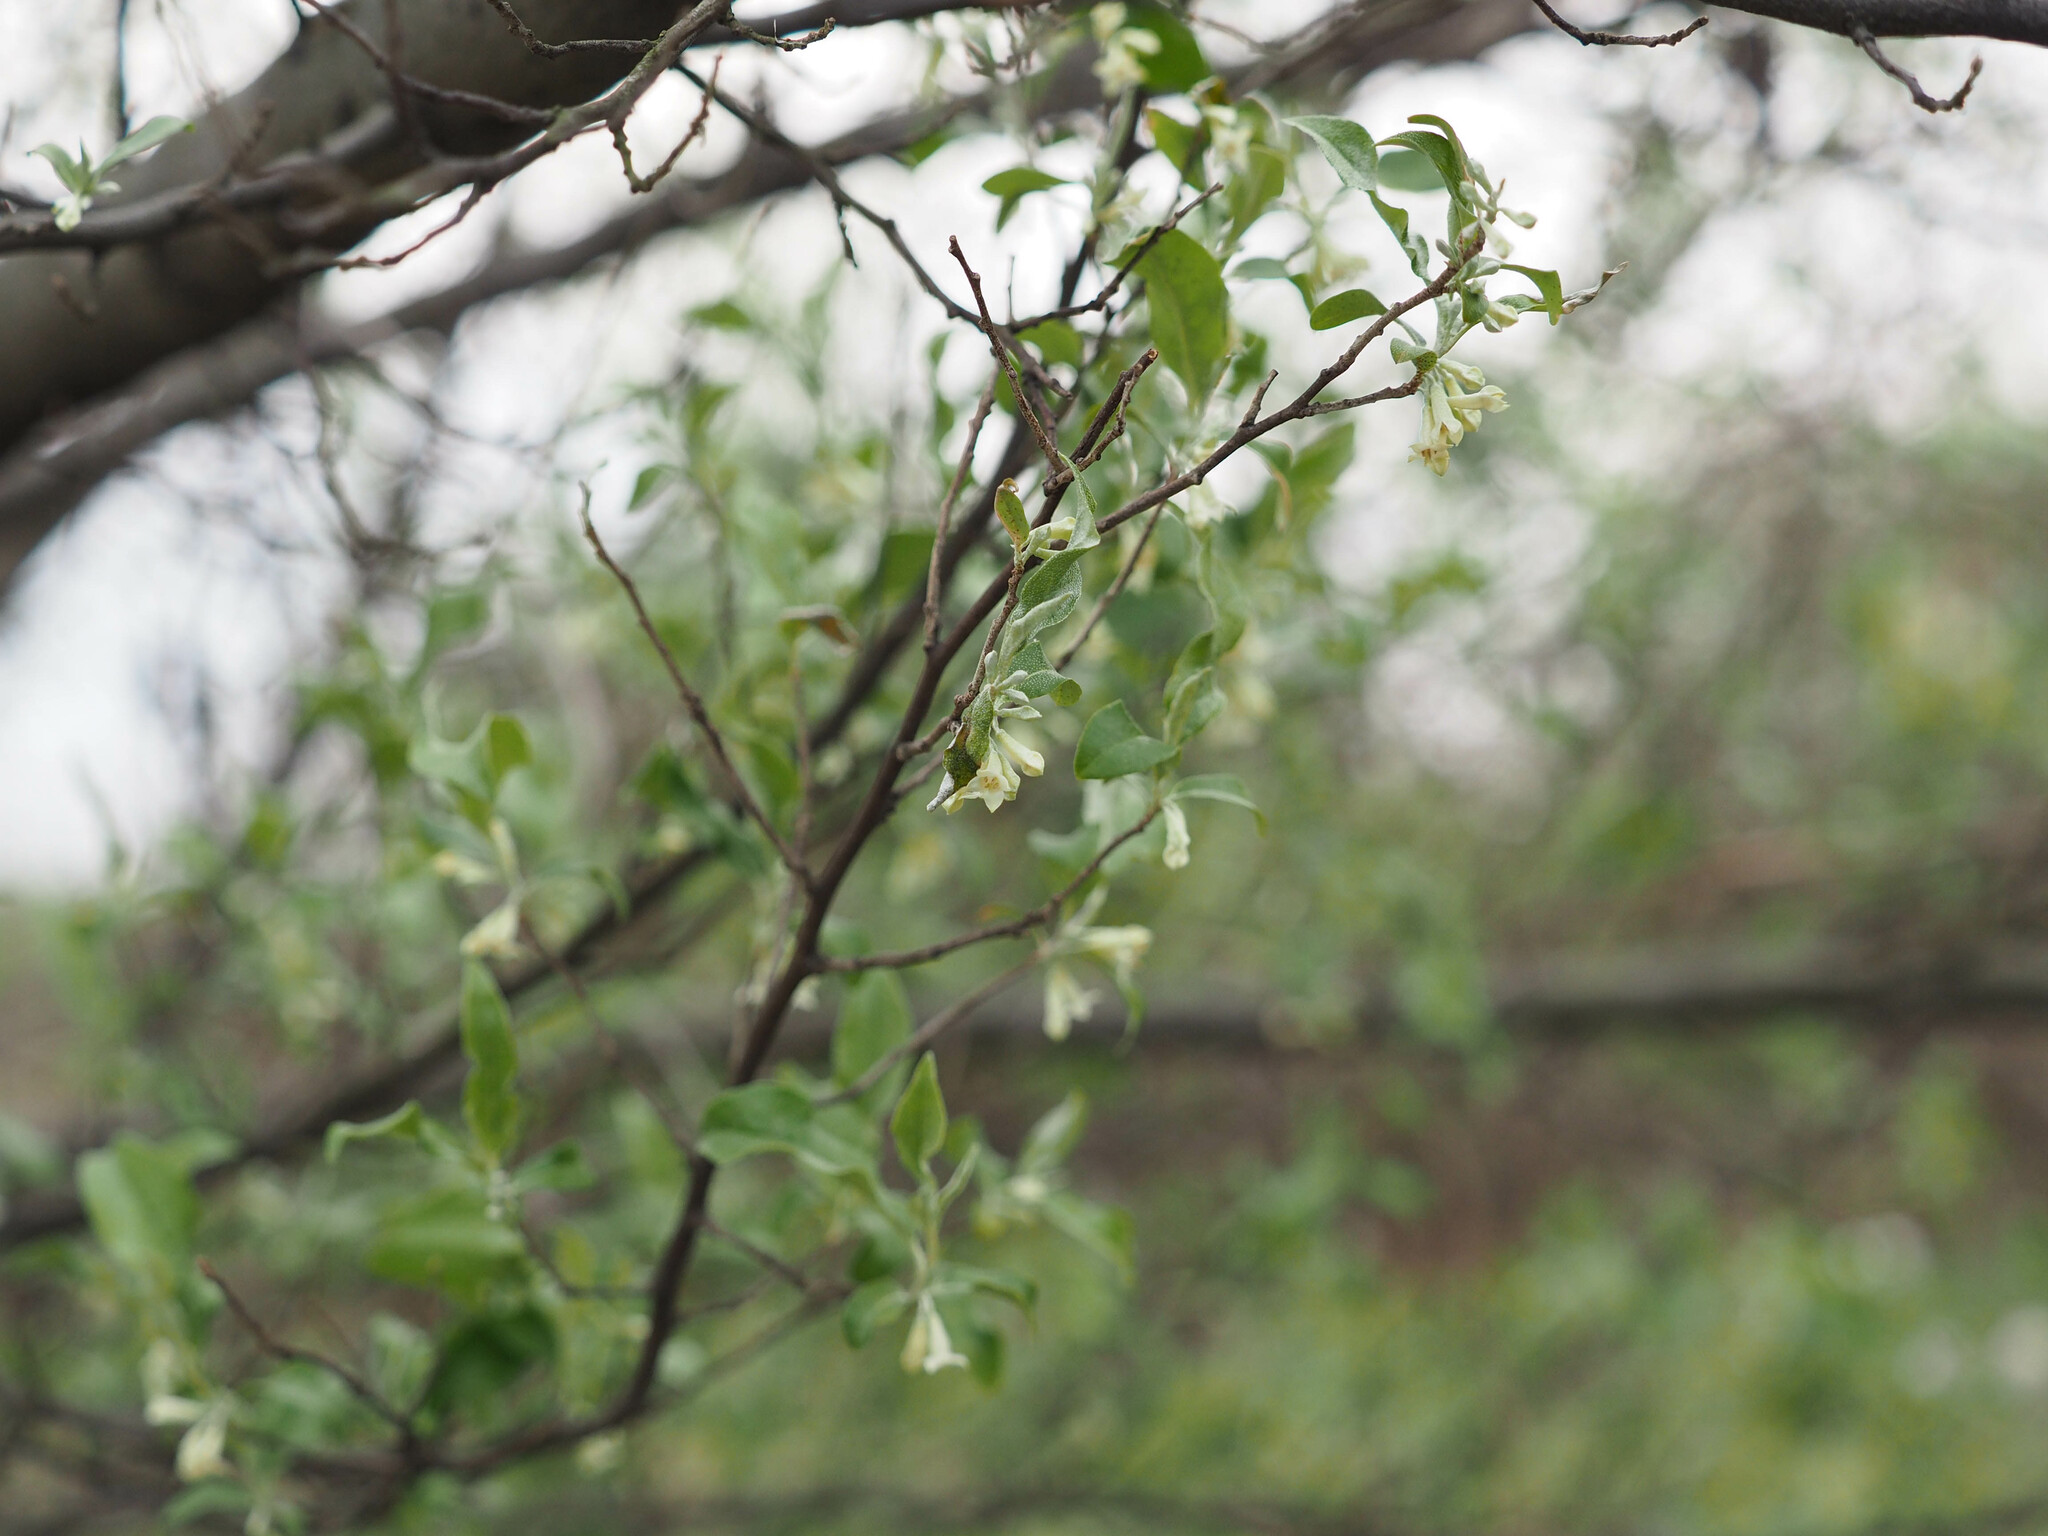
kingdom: Plantae
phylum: Tracheophyta
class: Magnoliopsida
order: Rosales
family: Elaeagnaceae
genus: Elaeagnus
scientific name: Elaeagnus umbellata
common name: Autumn olive
